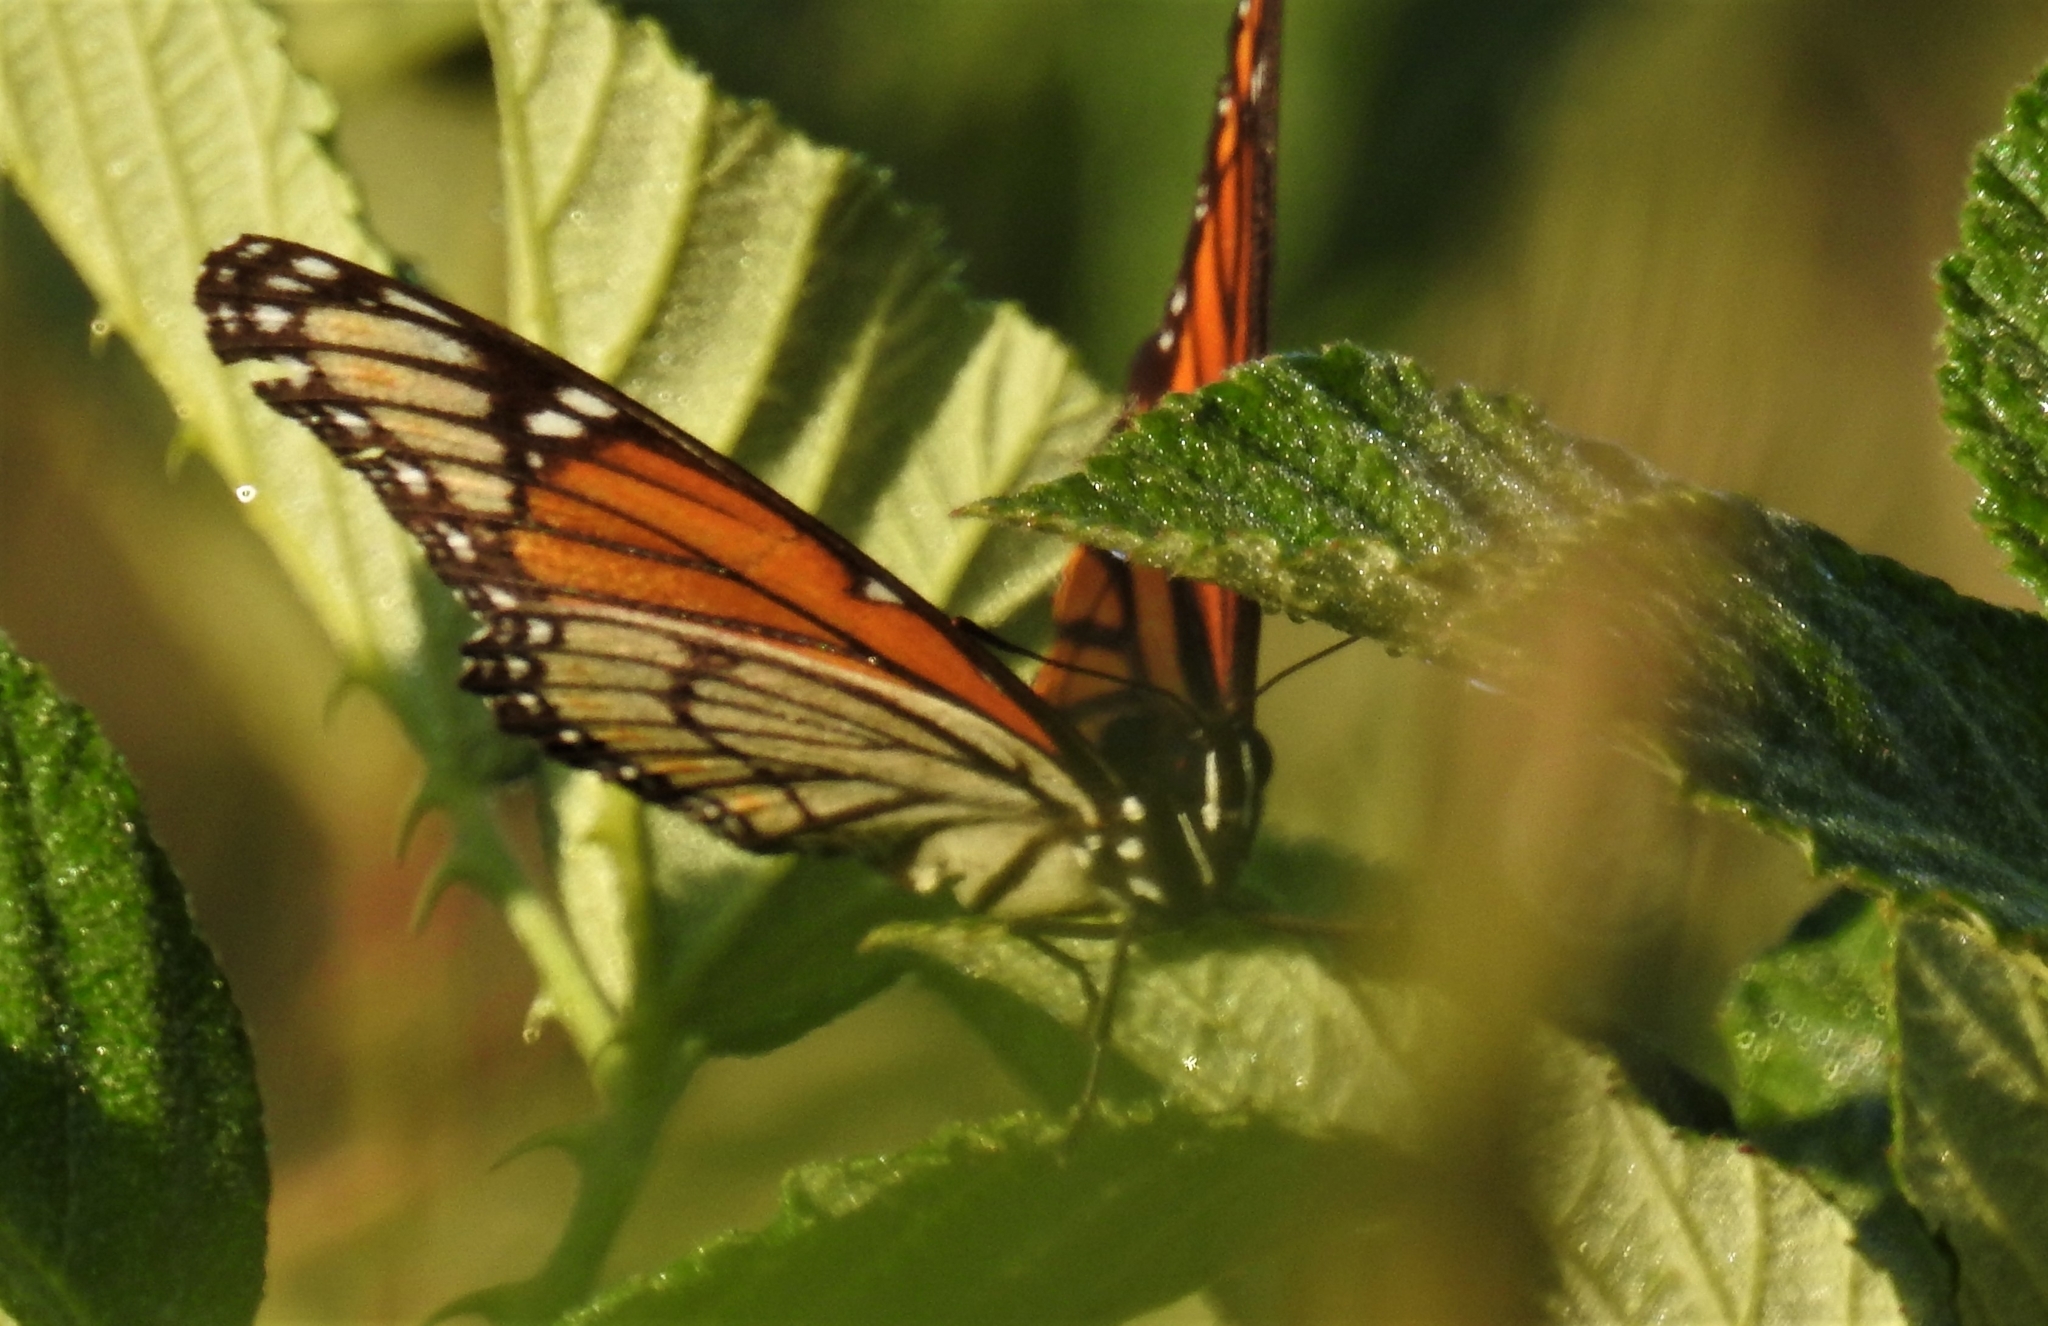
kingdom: Animalia
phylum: Arthropoda
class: Insecta
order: Lepidoptera
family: Nymphalidae
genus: Limenitis
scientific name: Limenitis archippus
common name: Viceroy
